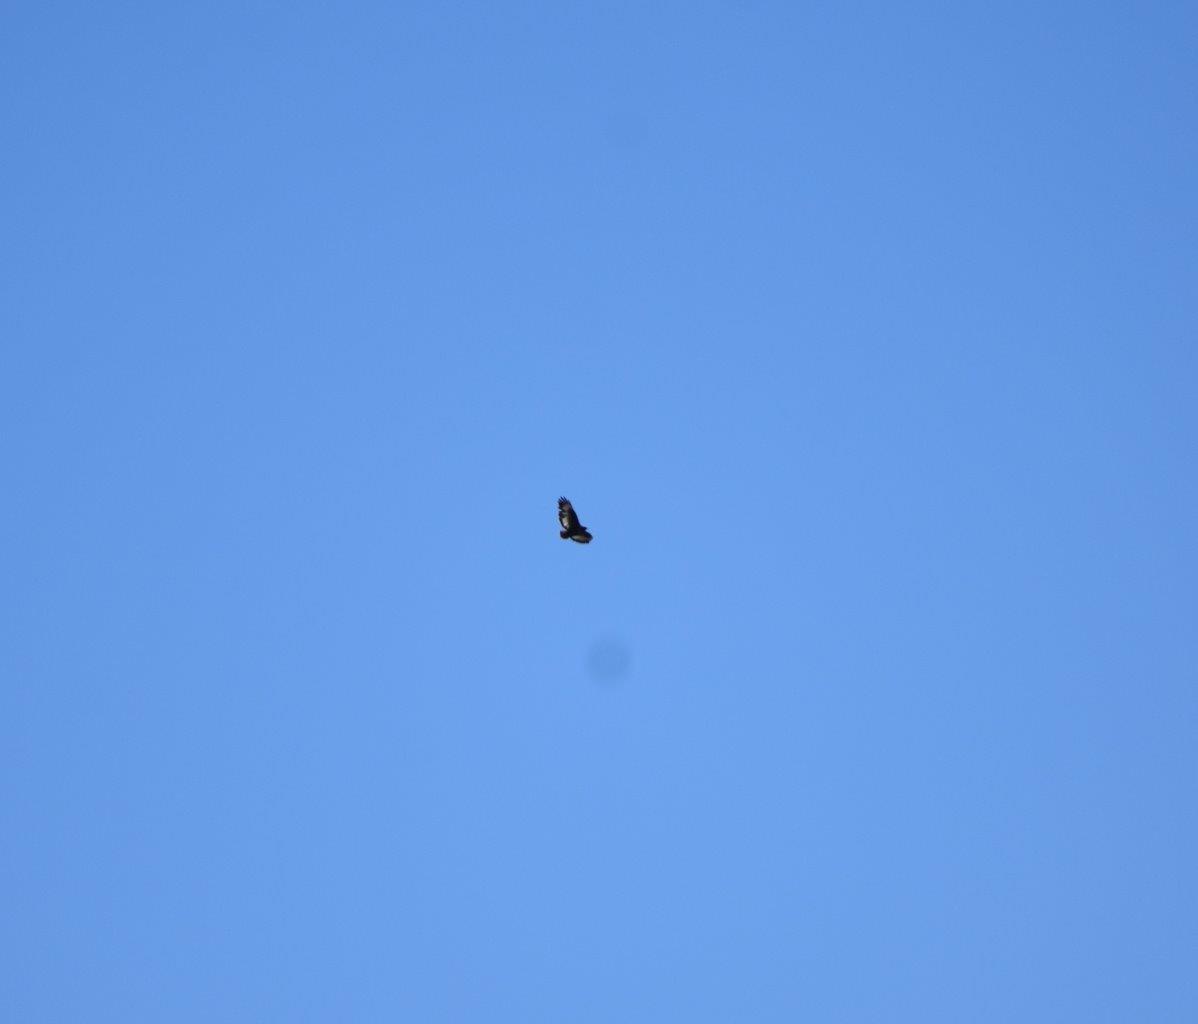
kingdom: Animalia
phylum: Chordata
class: Aves
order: Accipitriformes
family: Accipitridae
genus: Buteo
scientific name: Buteo rufofuscus
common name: Jackal buzzard
